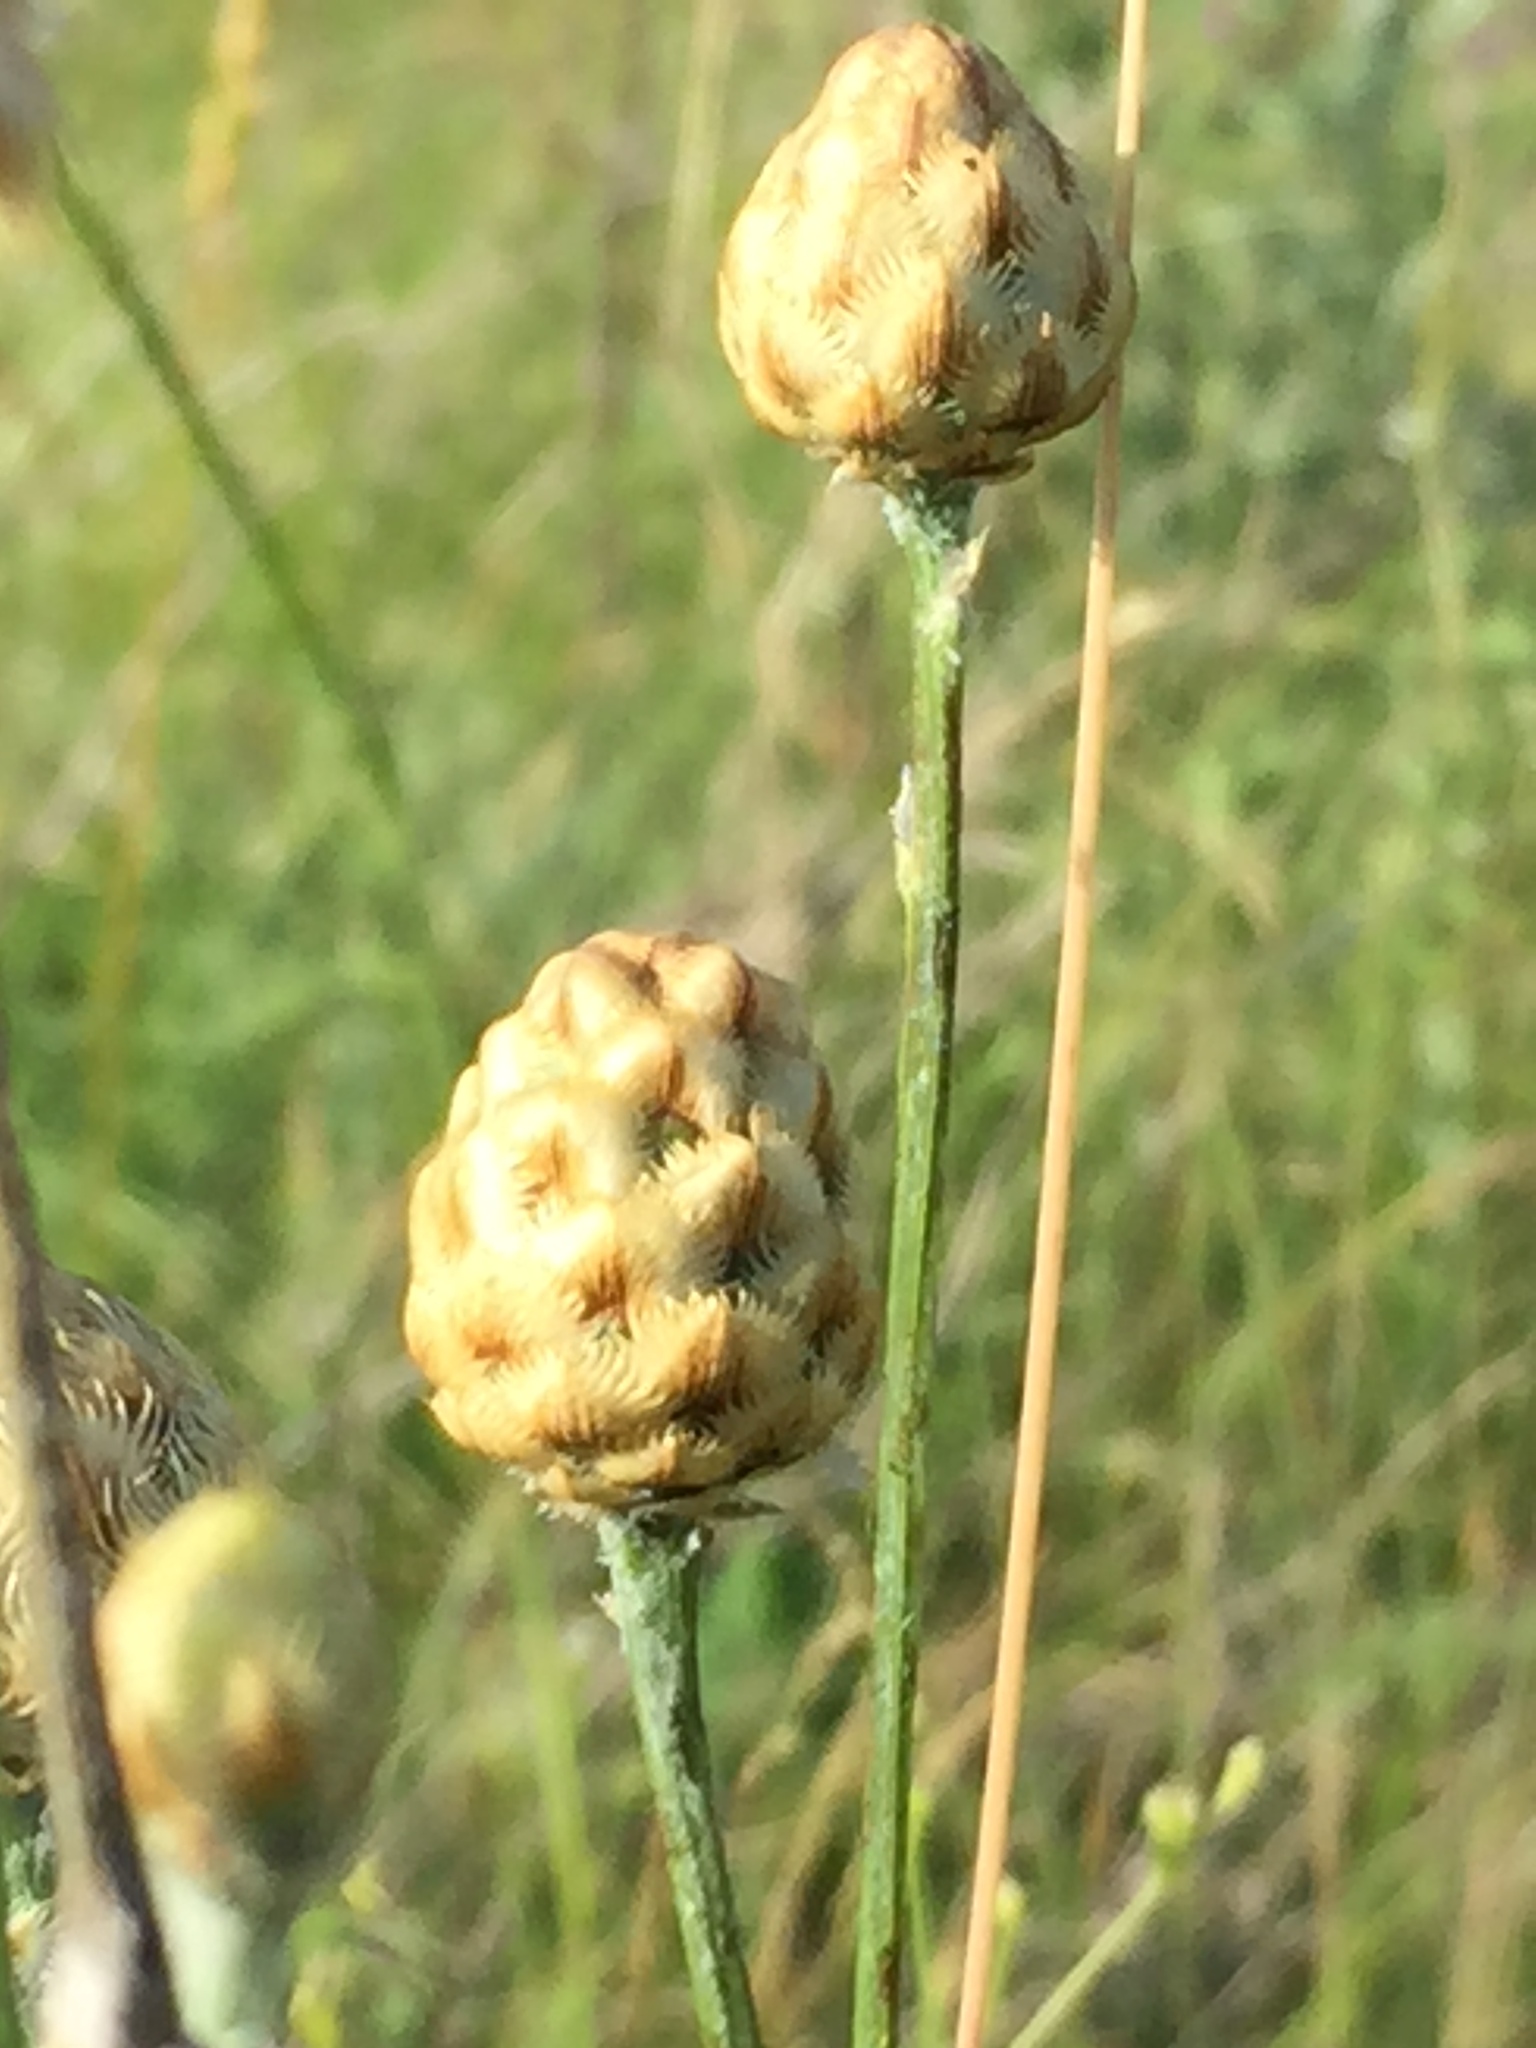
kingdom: Plantae
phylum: Tracheophyta
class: Magnoliopsida
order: Asterales
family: Asteraceae
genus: Centaurea
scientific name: Centaurea orientalis
